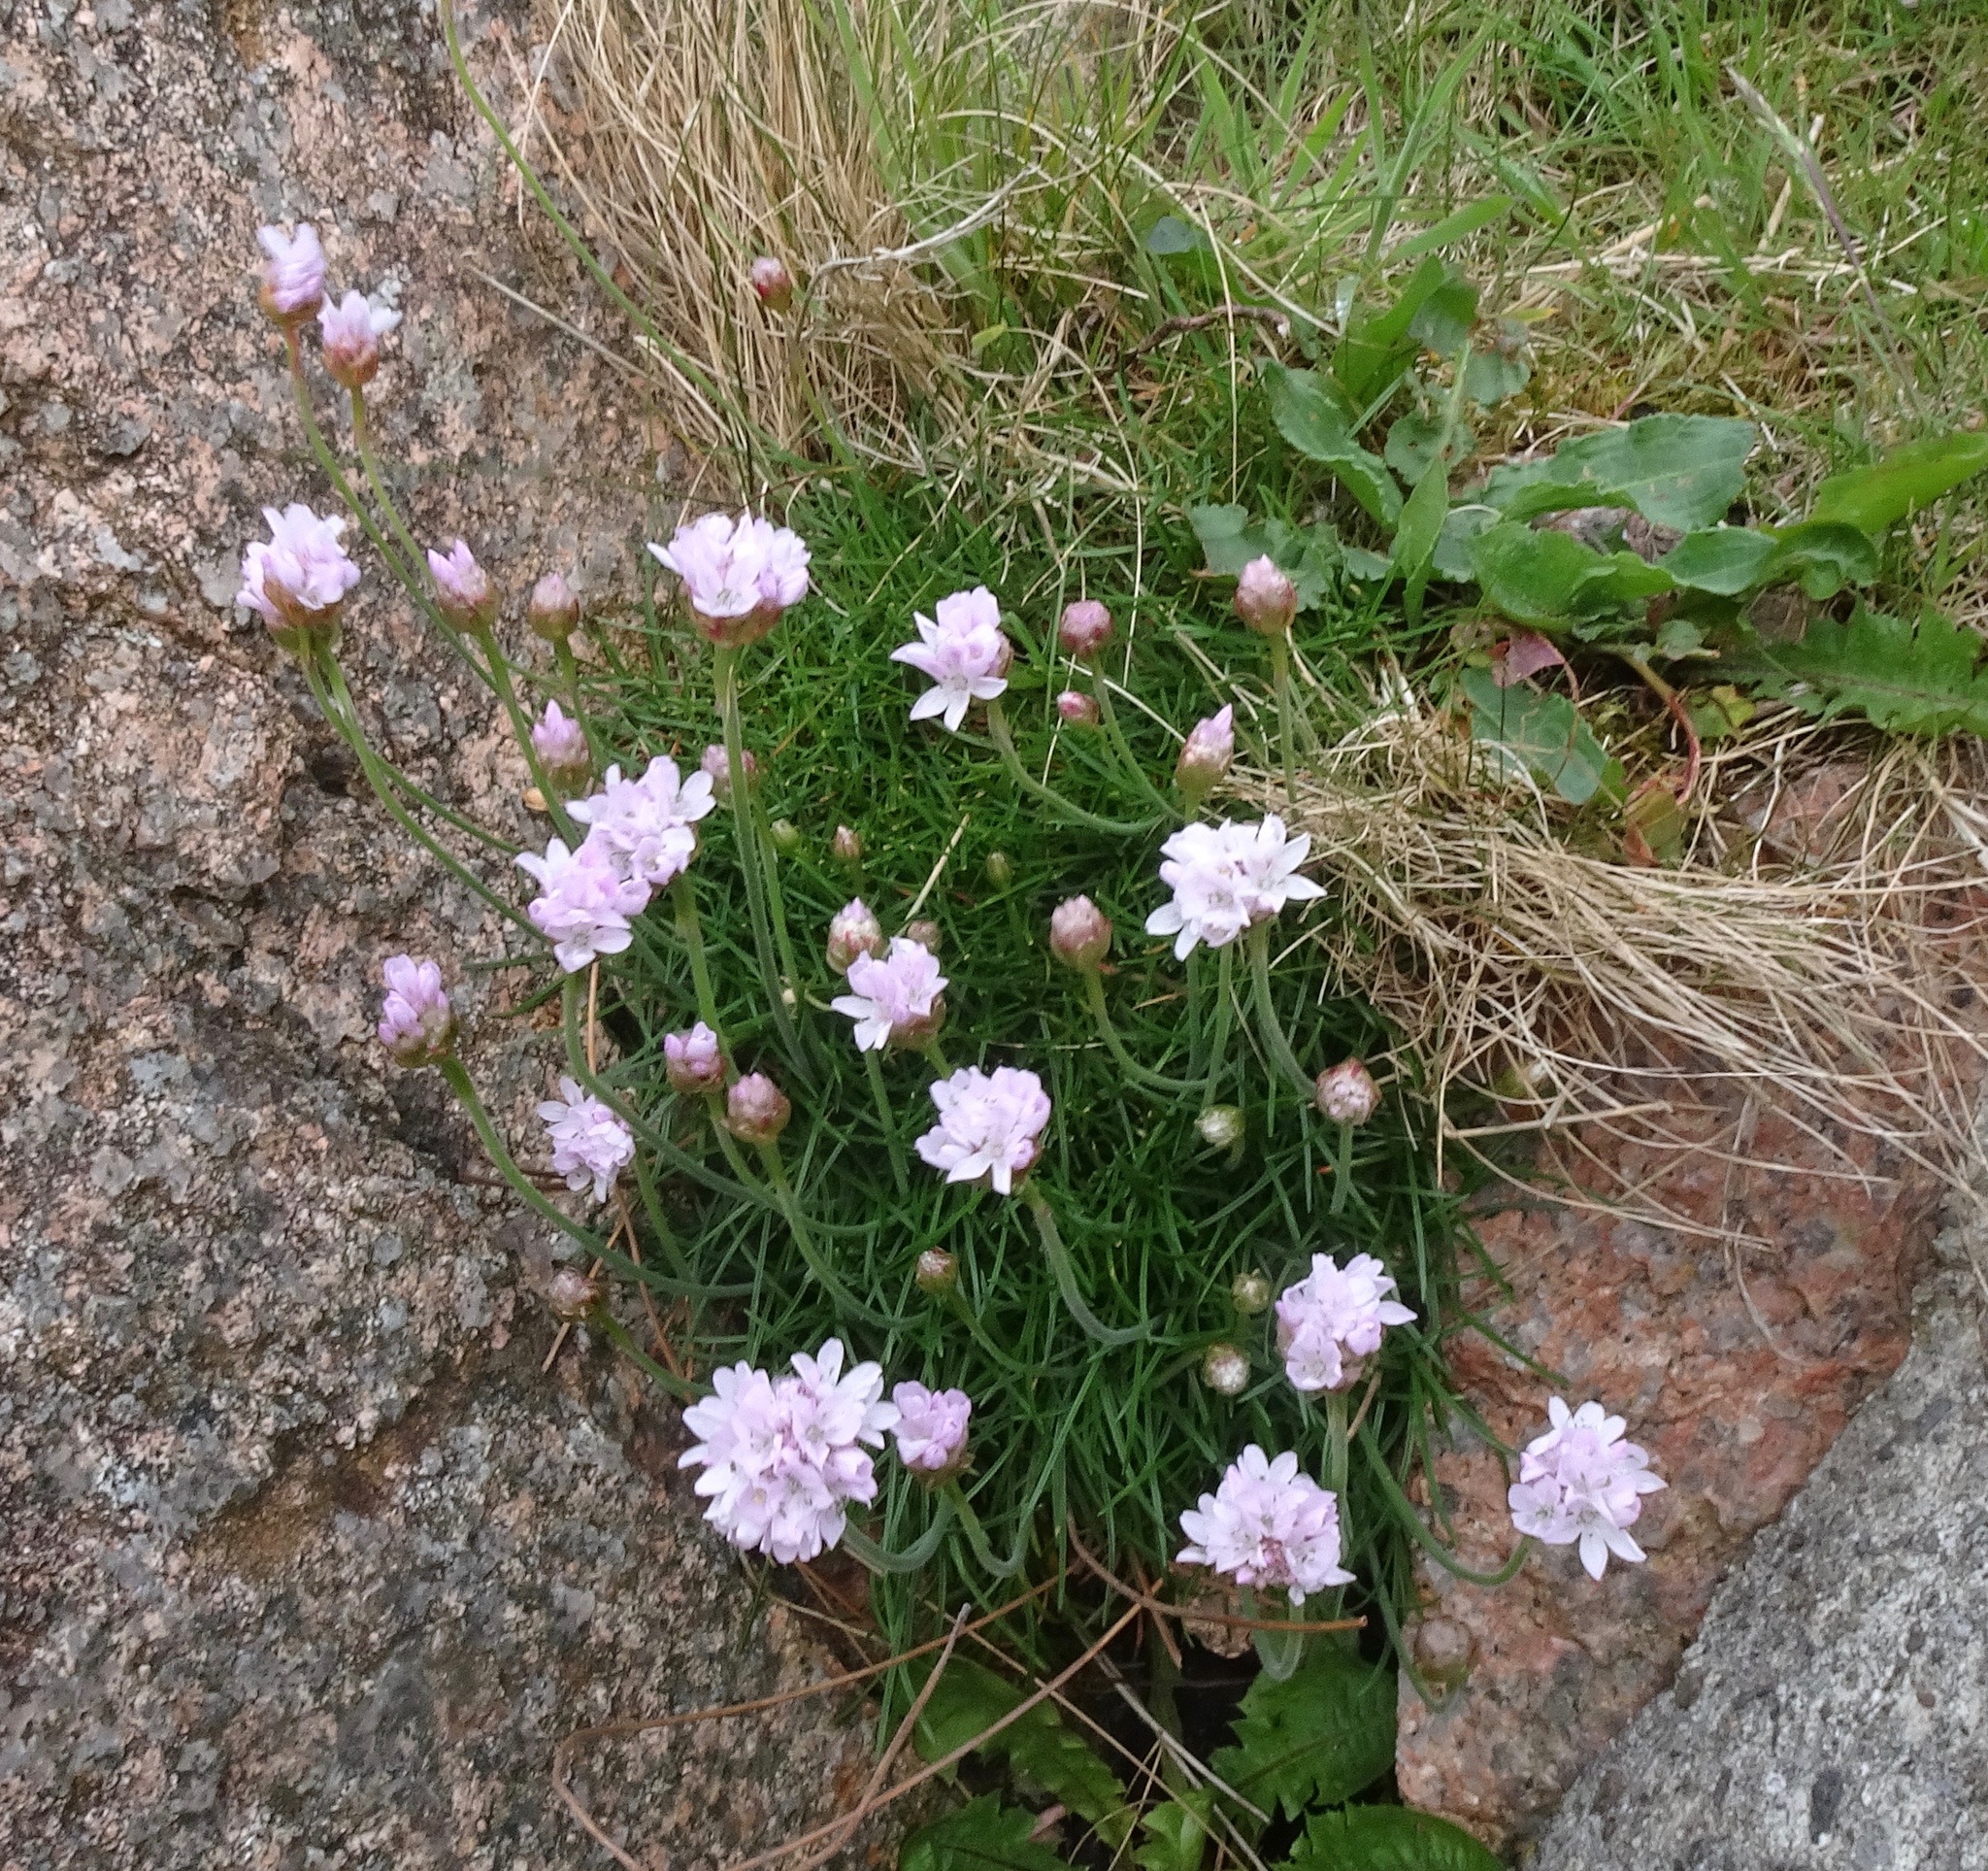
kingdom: Plantae
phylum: Tracheophyta
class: Magnoliopsida
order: Caryophyllales
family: Plumbaginaceae
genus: Armeria
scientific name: Armeria maritima
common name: Thrift
